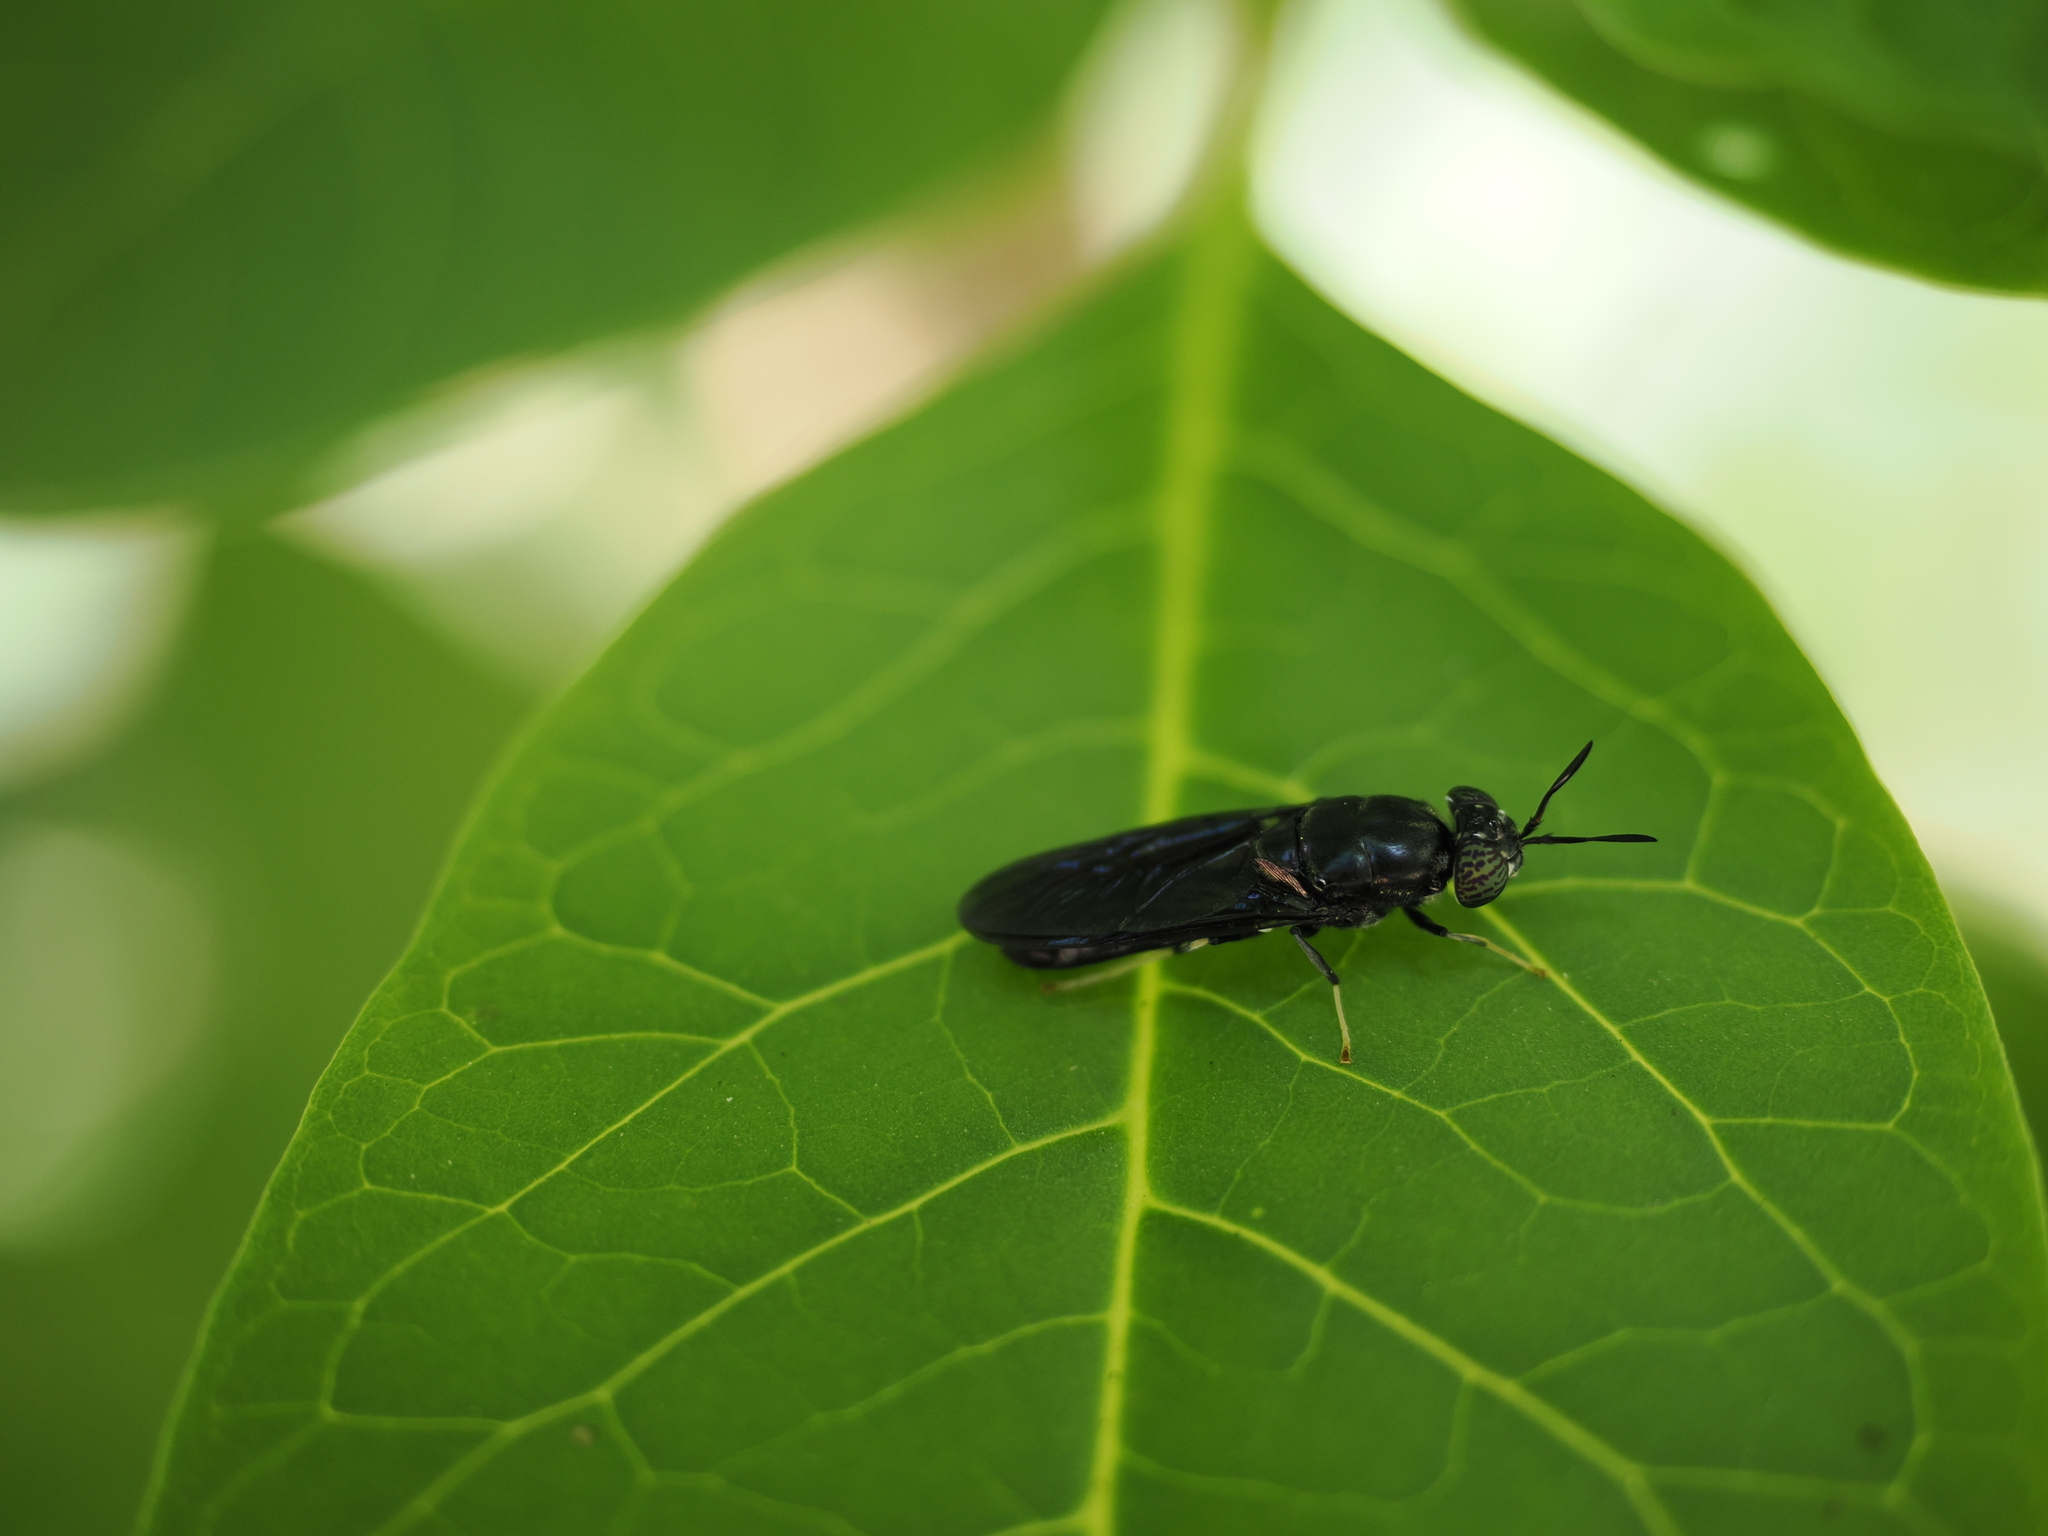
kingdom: Animalia
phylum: Arthropoda
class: Insecta
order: Diptera
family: Stratiomyidae
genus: Hermetia
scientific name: Hermetia illucens
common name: Black soldier fly
